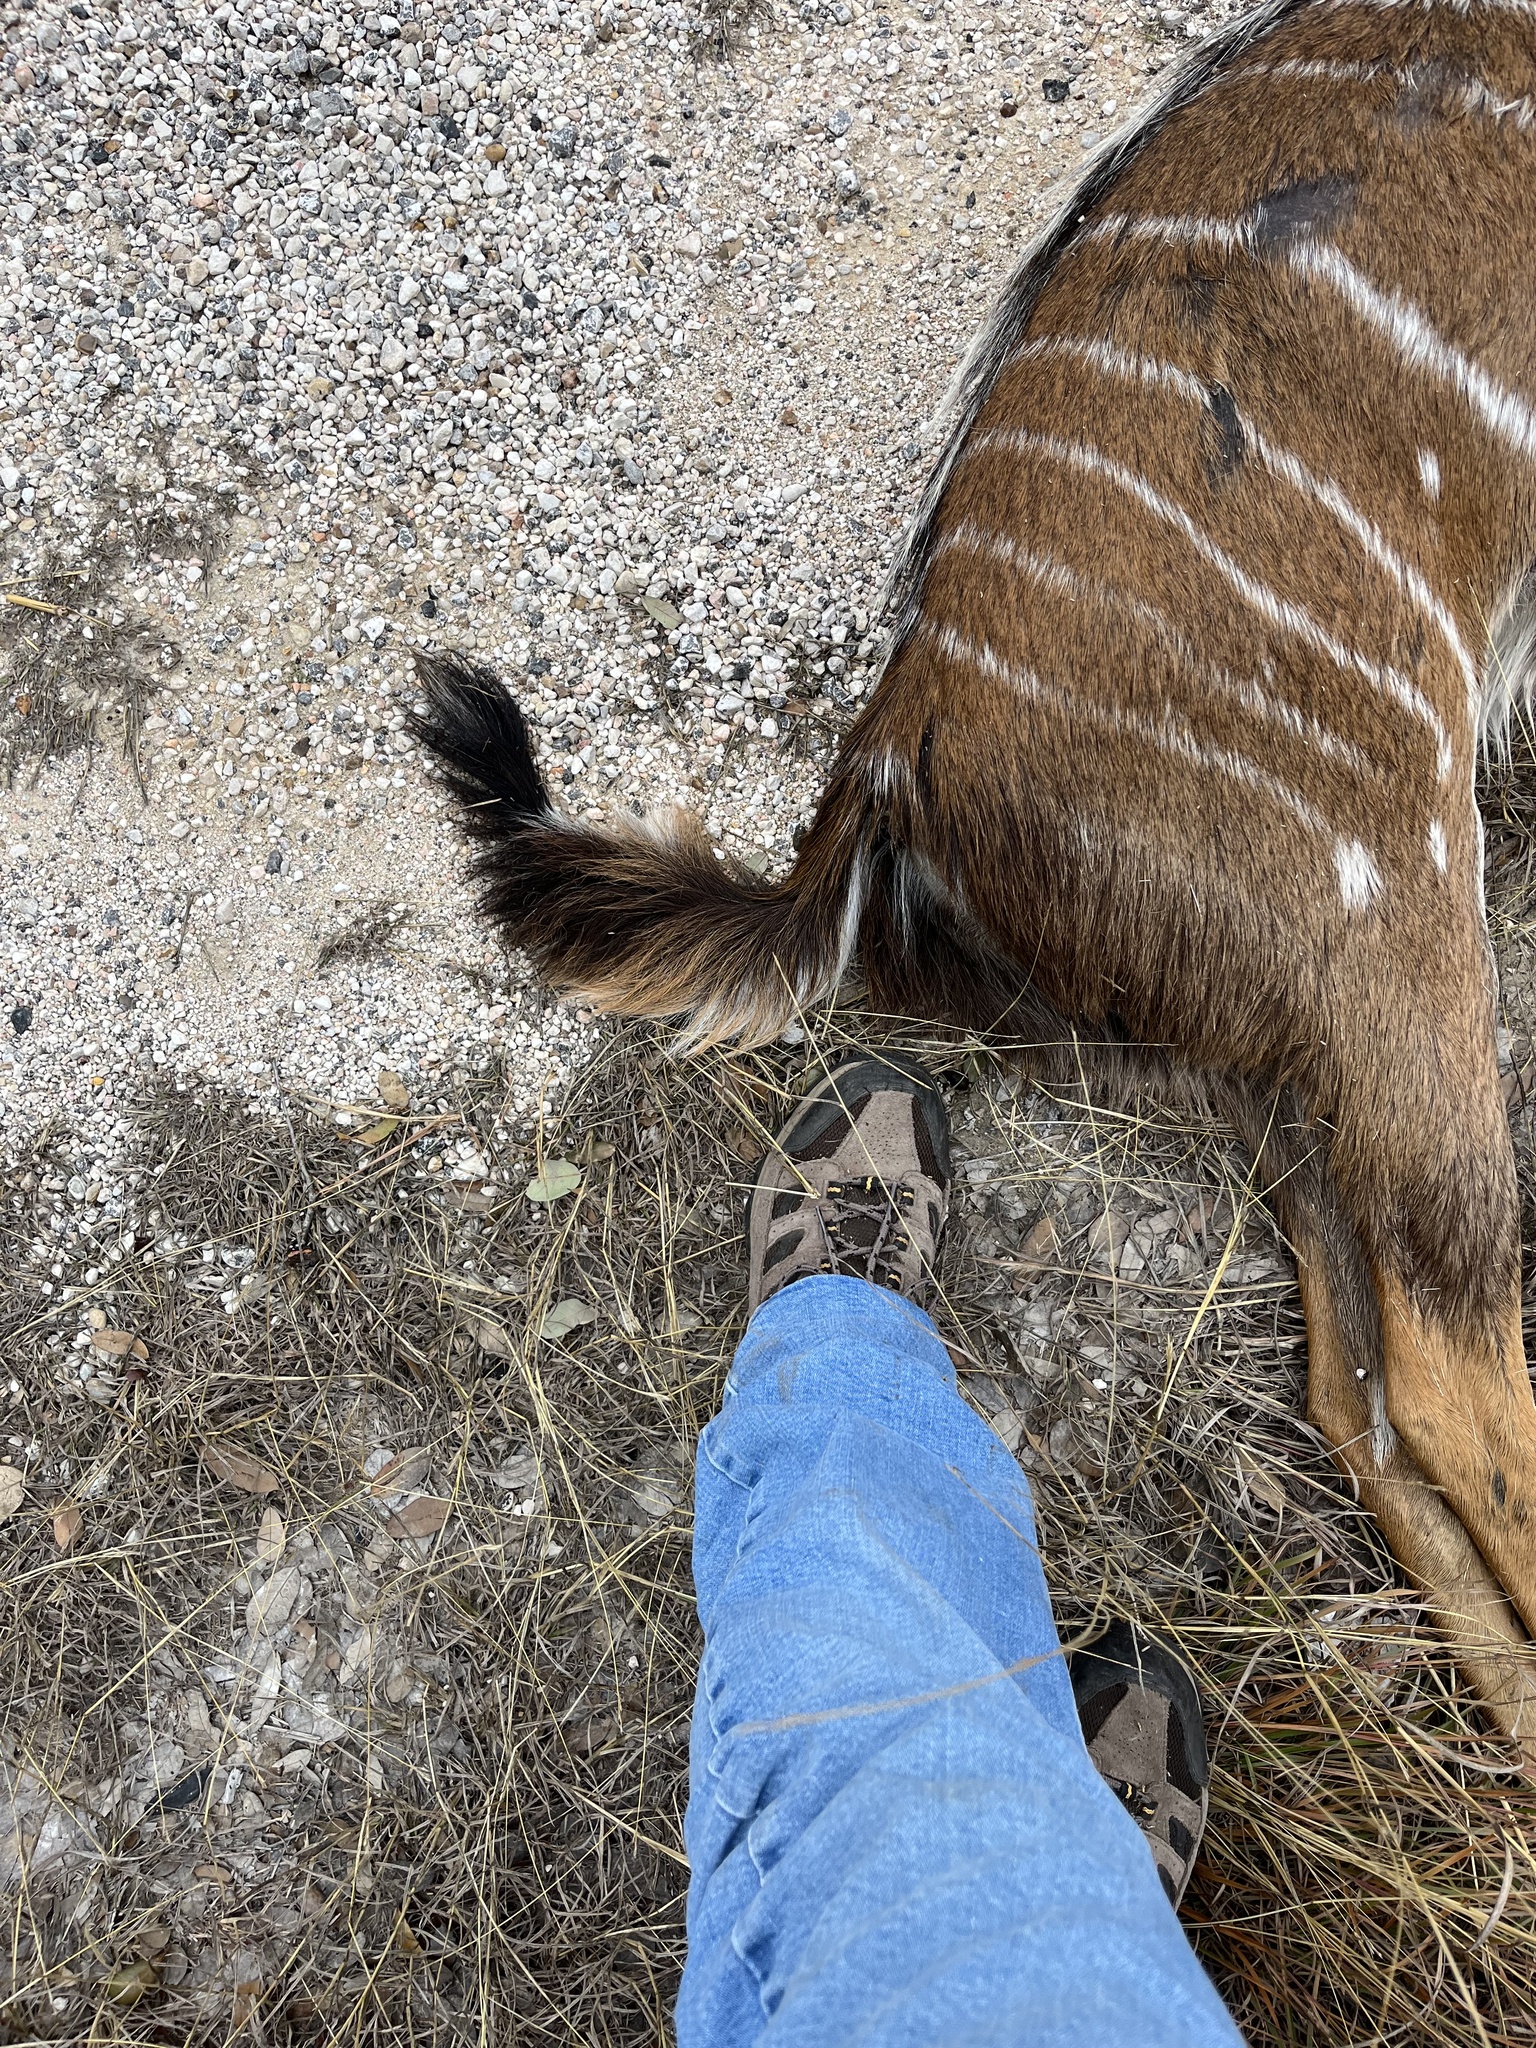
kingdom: Animalia
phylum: Chordata
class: Mammalia
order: Artiodactyla
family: Bovidae
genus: Tragelaphus
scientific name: Tragelaphus angasii
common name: Nyala
